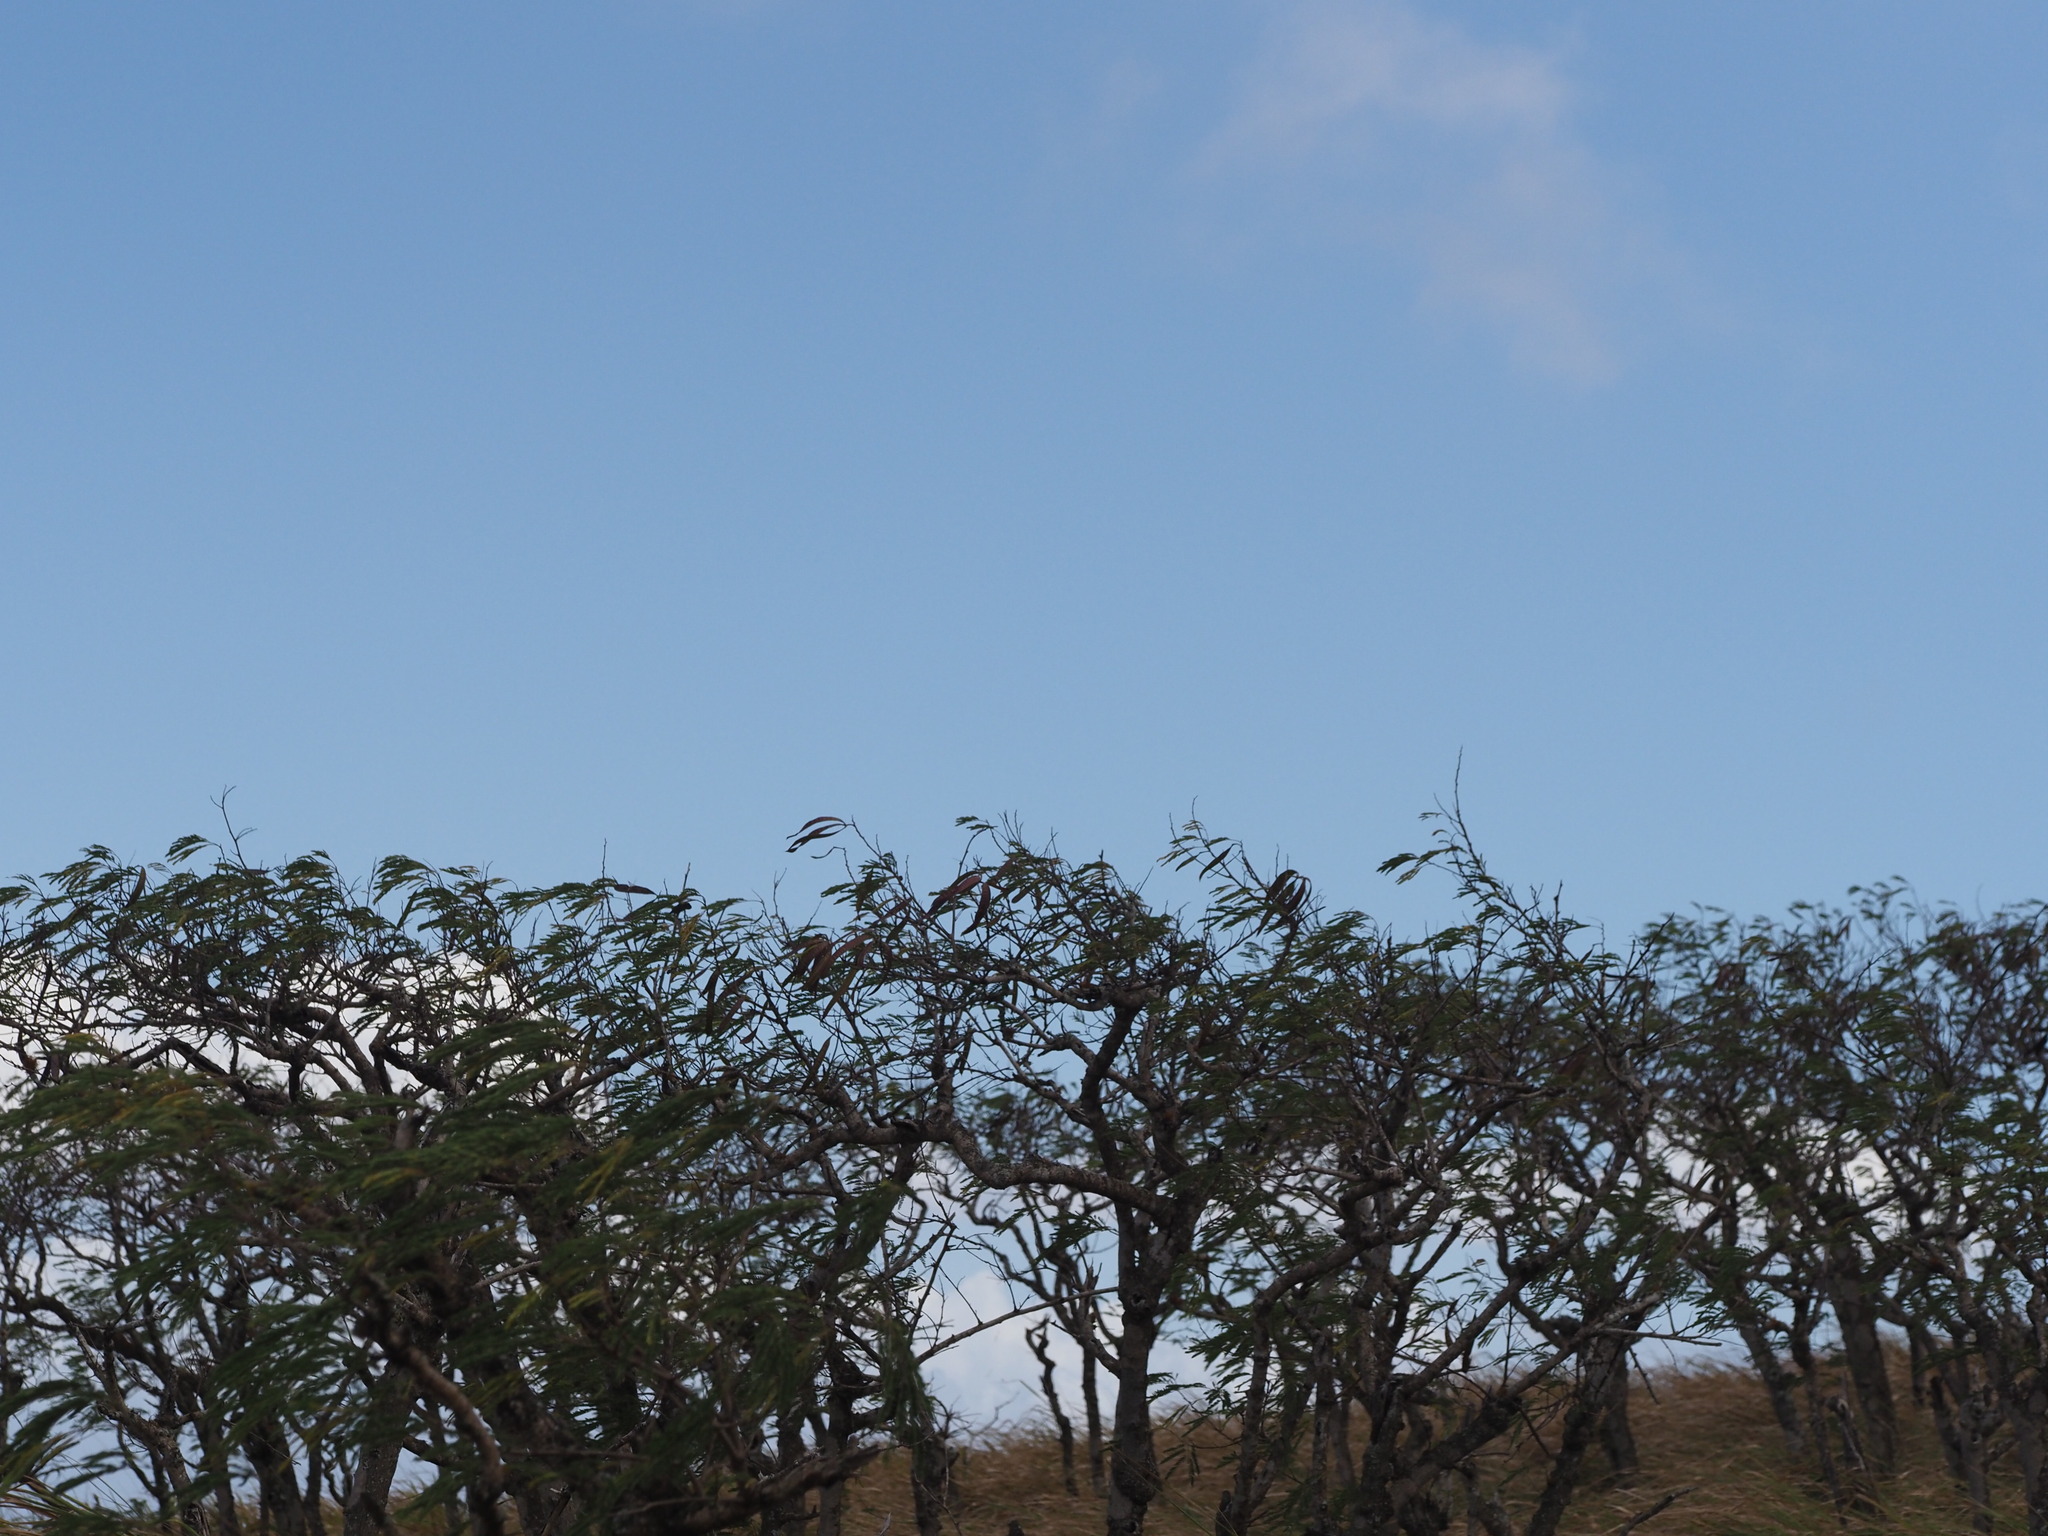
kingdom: Plantae
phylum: Tracheophyta
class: Magnoliopsida
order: Fabales
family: Fabaceae
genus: Leucaena
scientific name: Leucaena leucocephala
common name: White leadtree
